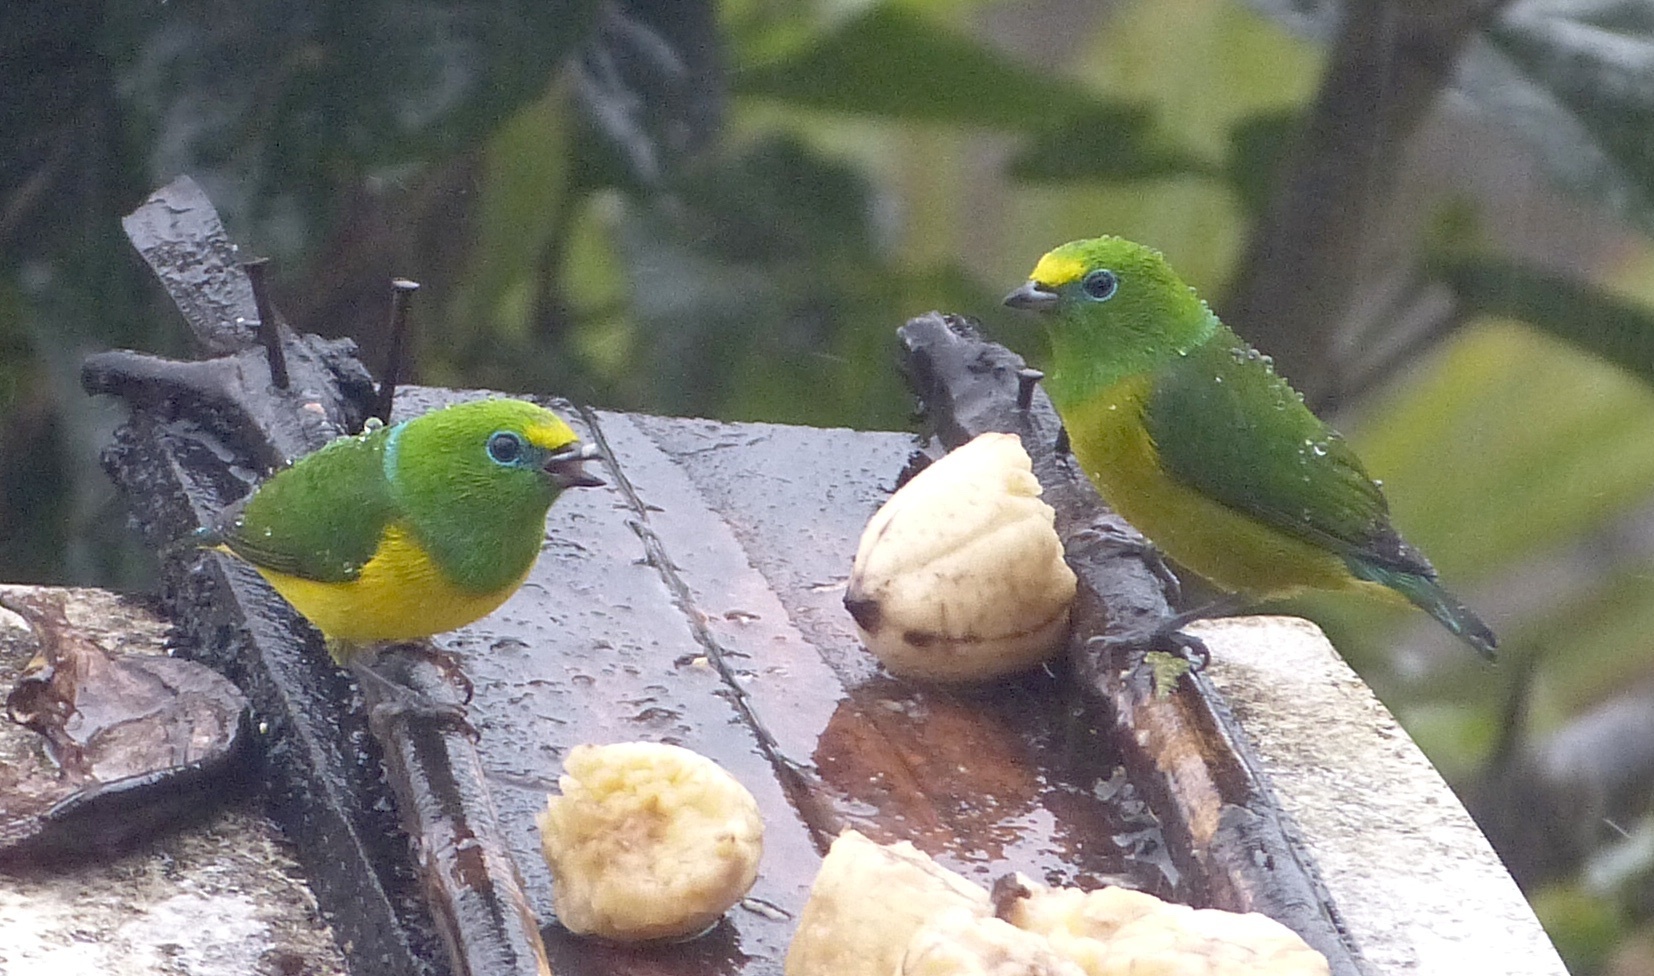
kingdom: Animalia
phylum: Chordata
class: Aves
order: Passeriformes
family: Fringillidae
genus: Chlorophonia
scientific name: Chlorophonia cyanea
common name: Blue-naped chlorophonia
